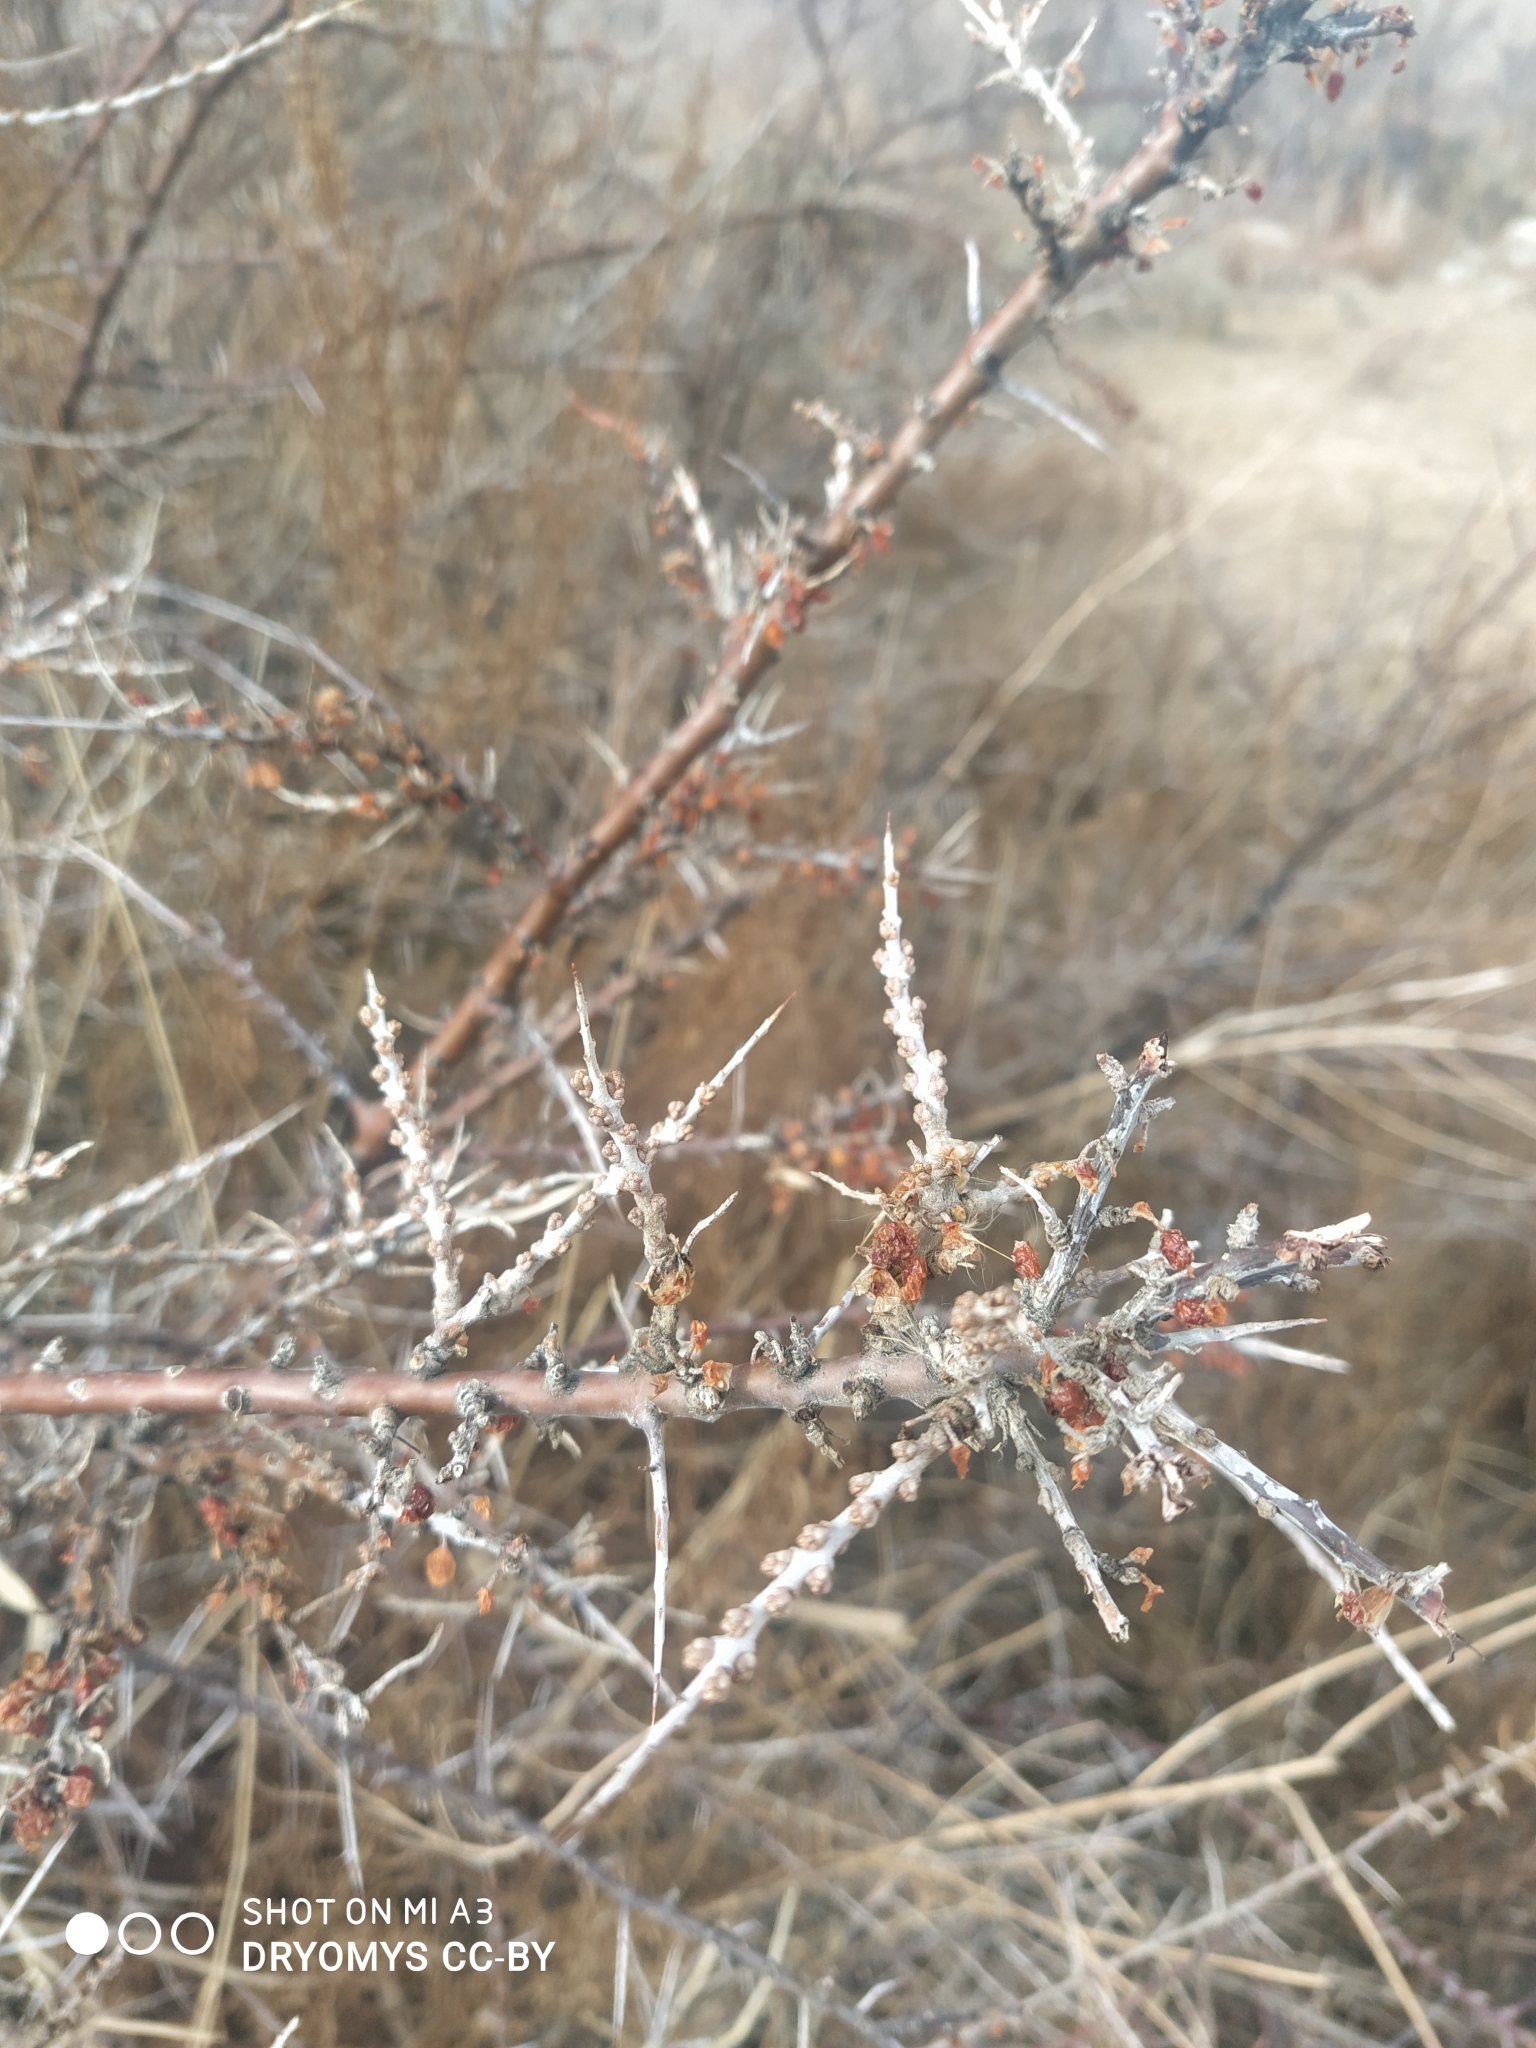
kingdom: Plantae
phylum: Tracheophyta
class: Magnoliopsida
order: Rosales
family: Elaeagnaceae
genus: Hippophae
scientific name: Hippophae rhamnoides
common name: Sea-buckthorn
